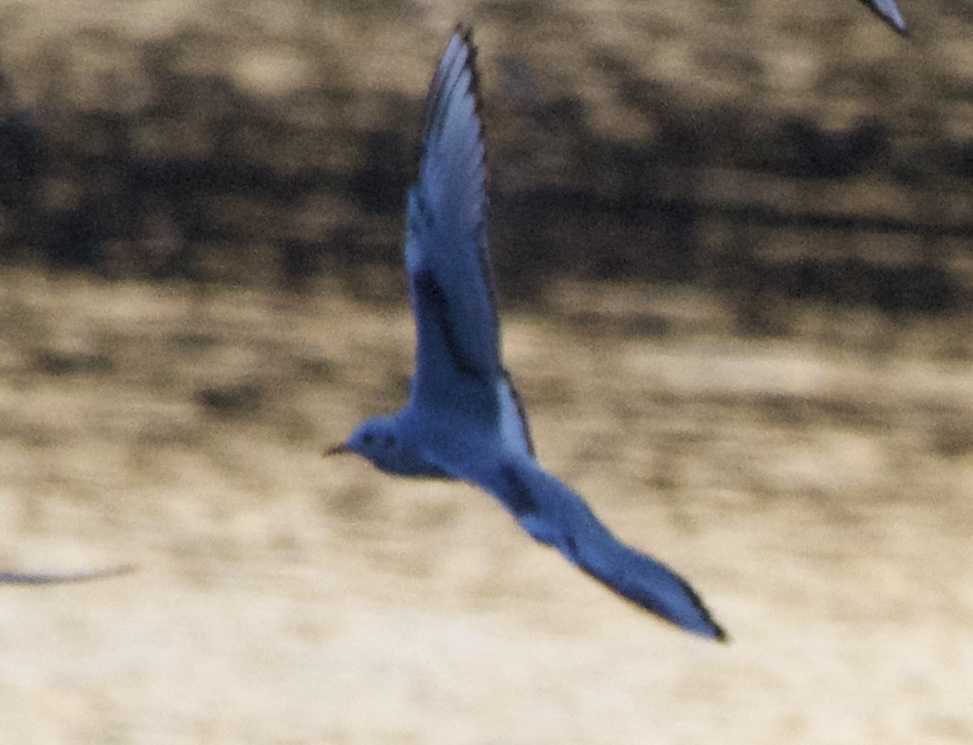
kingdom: Animalia
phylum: Chordata
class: Aves
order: Charadriiformes
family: Laridae
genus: Chroicocephalus
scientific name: Chroicocephalus philadelphia
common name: Bonaparte's gull
